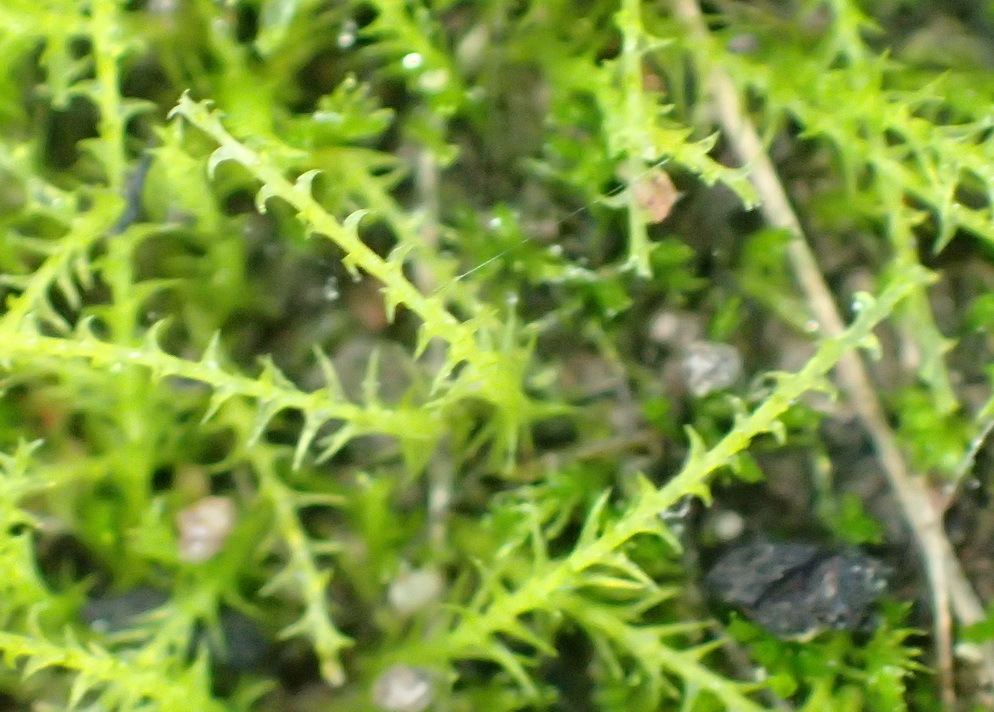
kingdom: Plantae
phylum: Bryophyta
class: Bryopsida
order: Dicranales
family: Ditrichaceae
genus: Pleuridium
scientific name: Pleuridium ecklonii
